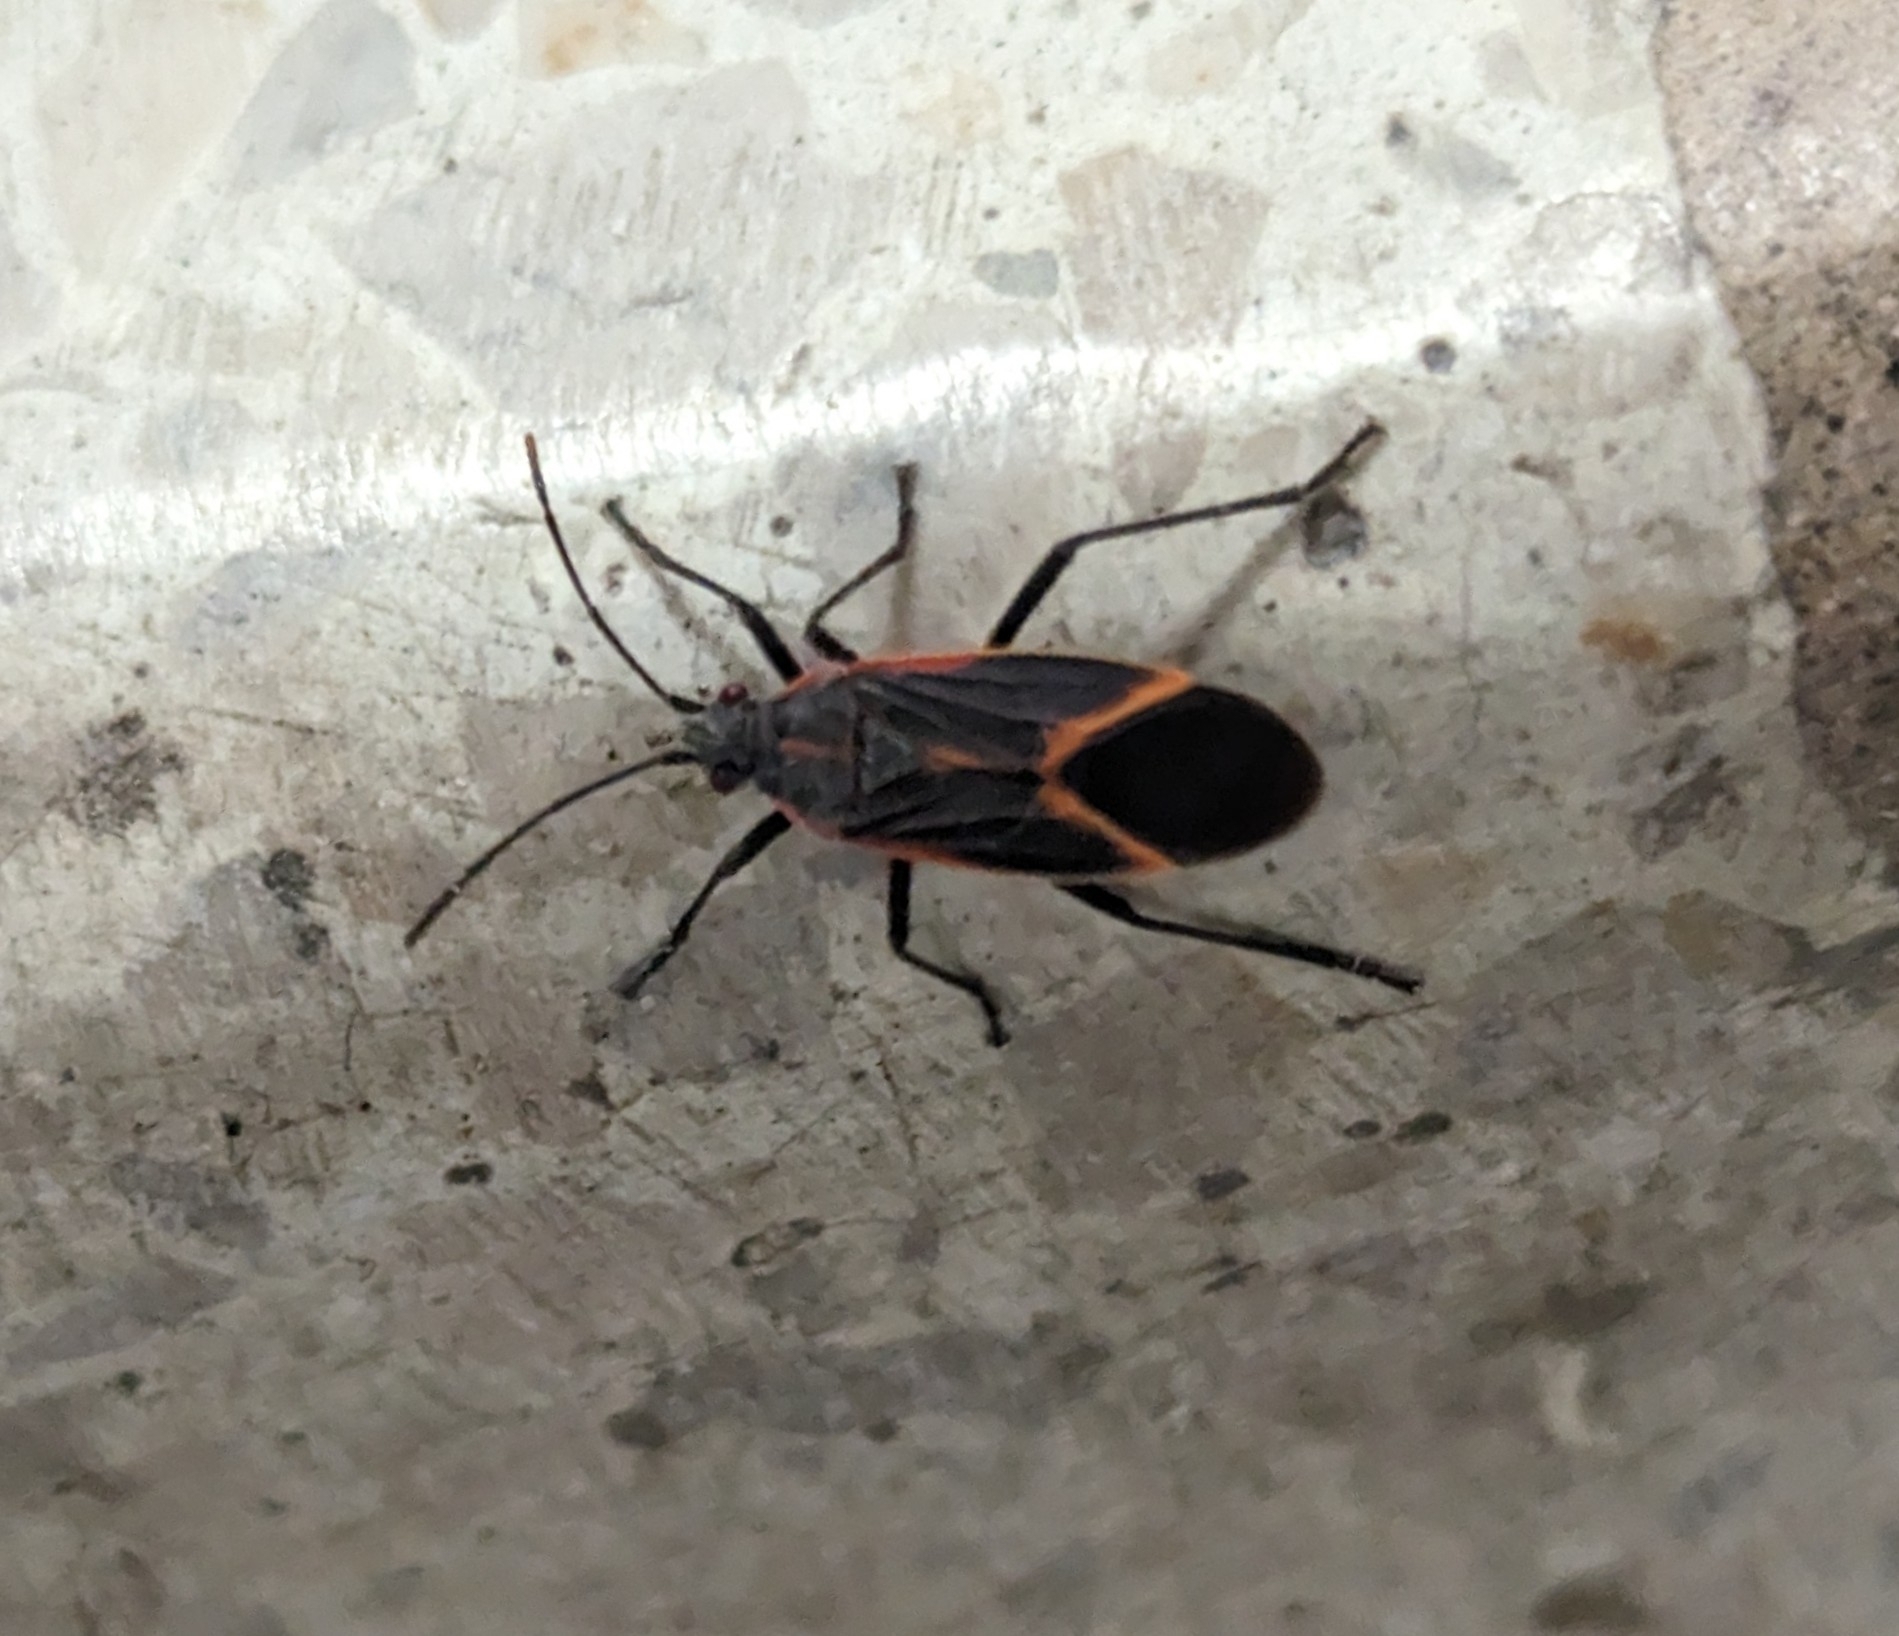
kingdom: Animalia
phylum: Arthropoda
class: Insecta
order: Hemiptera
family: Rhopalidae
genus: Boisea
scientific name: Boisea trivittata
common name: Boxelder bug
